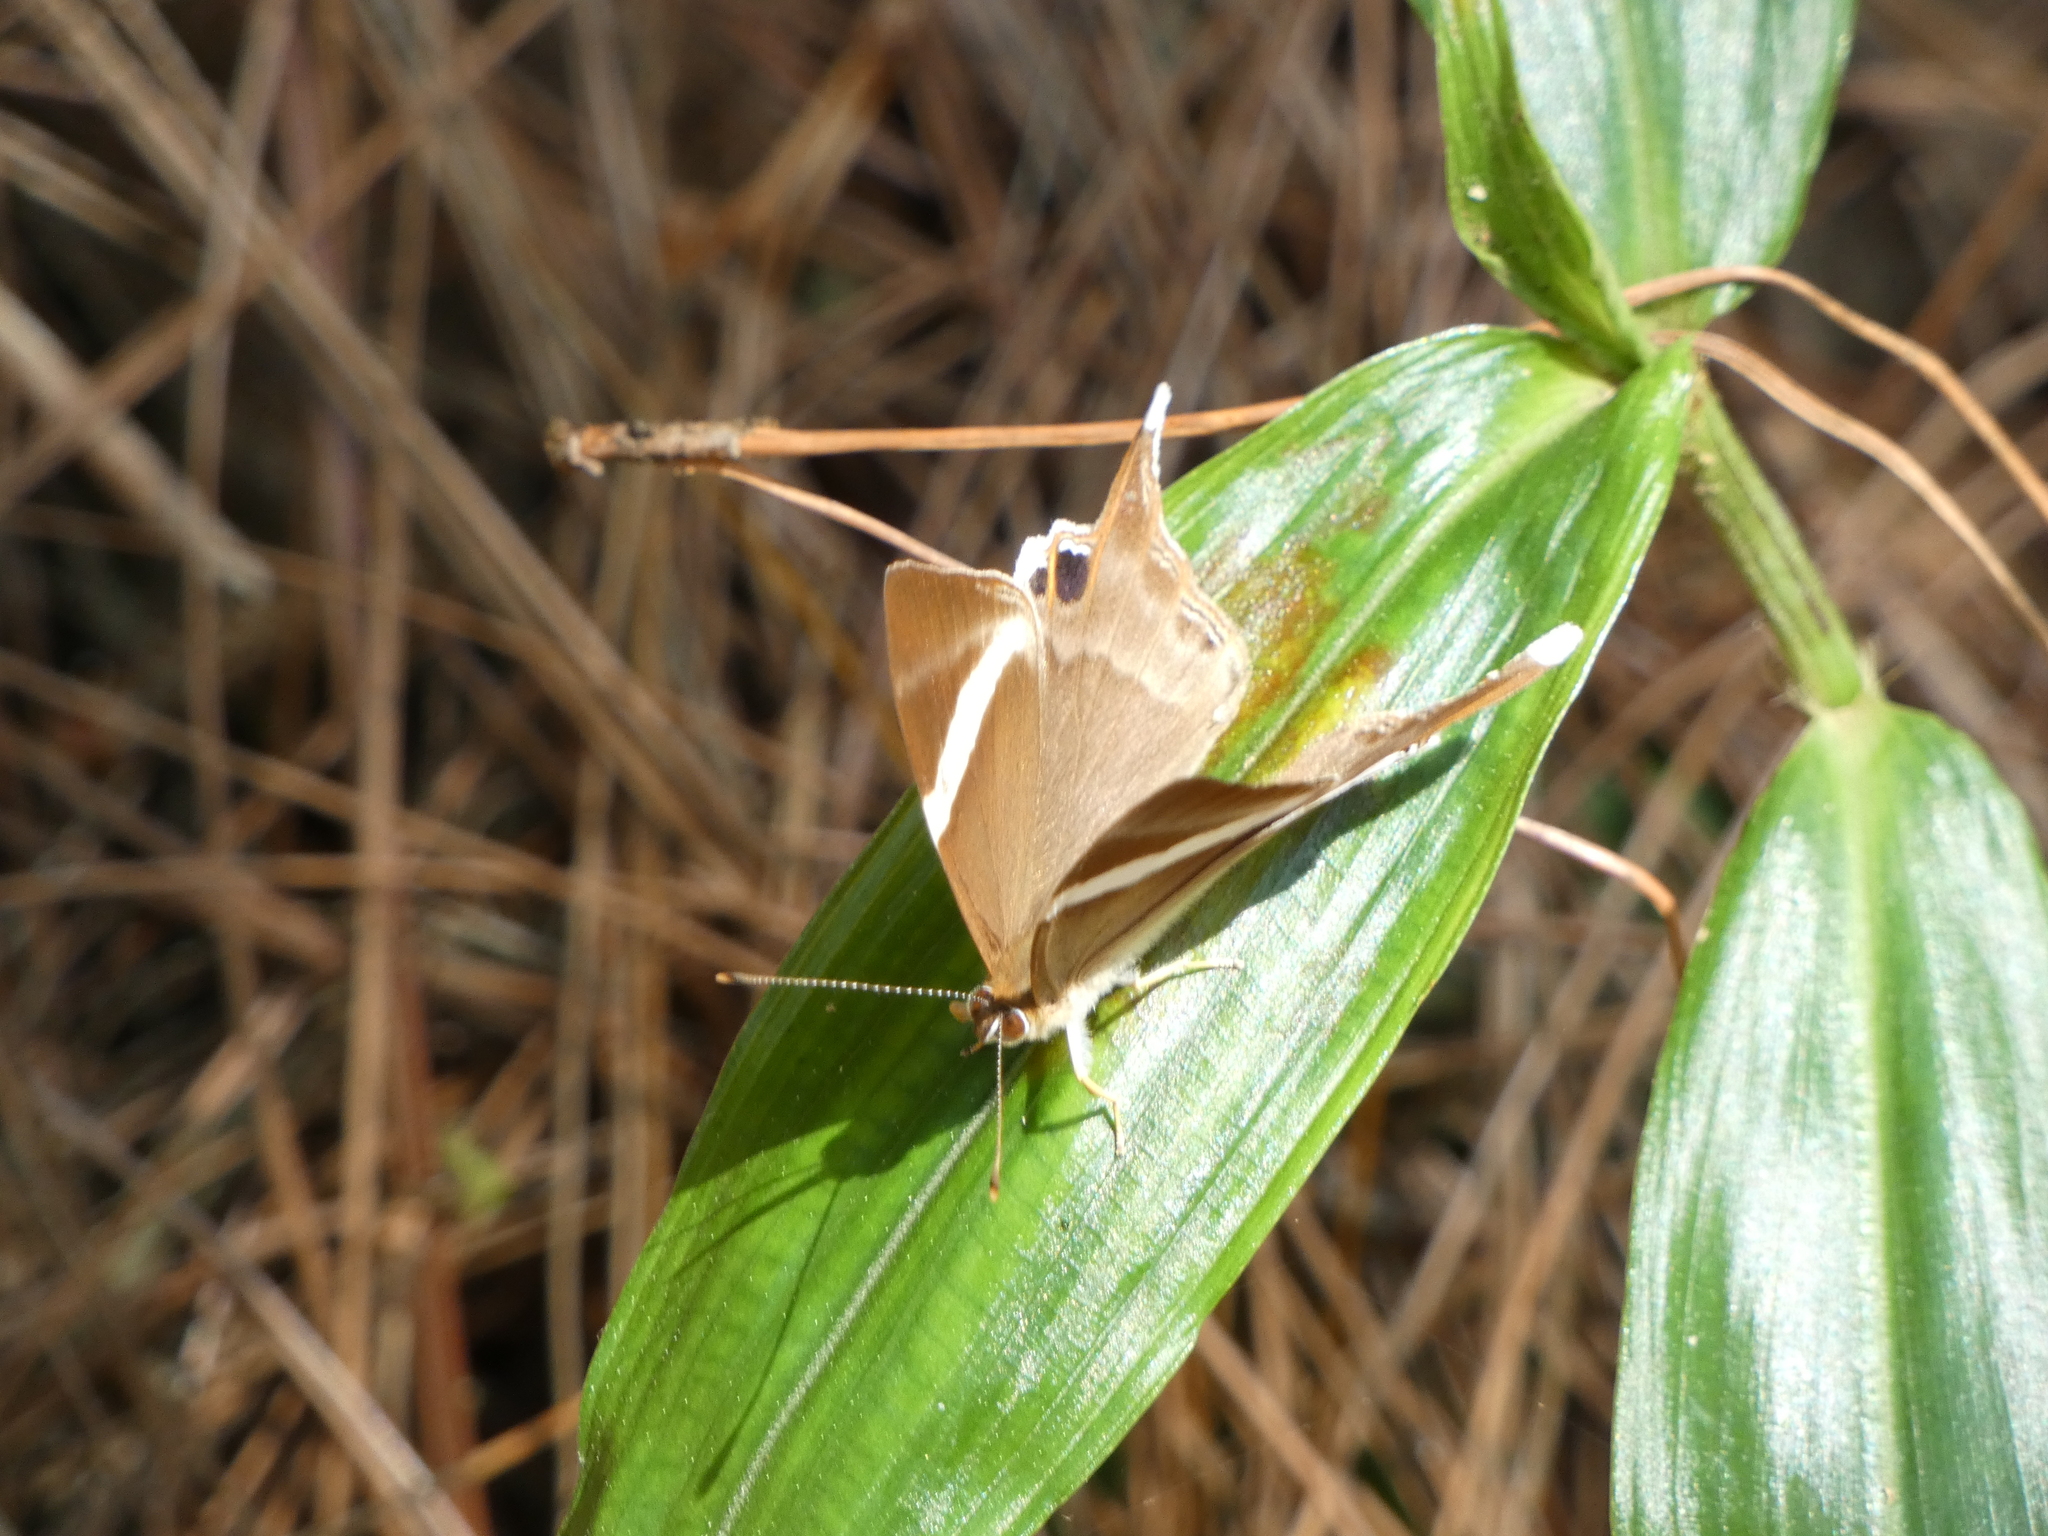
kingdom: Animalia
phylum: Arthropoda
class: Insecta
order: Lepidoptera
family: Lycaenidae
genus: Abisara
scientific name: Abisara neophron
